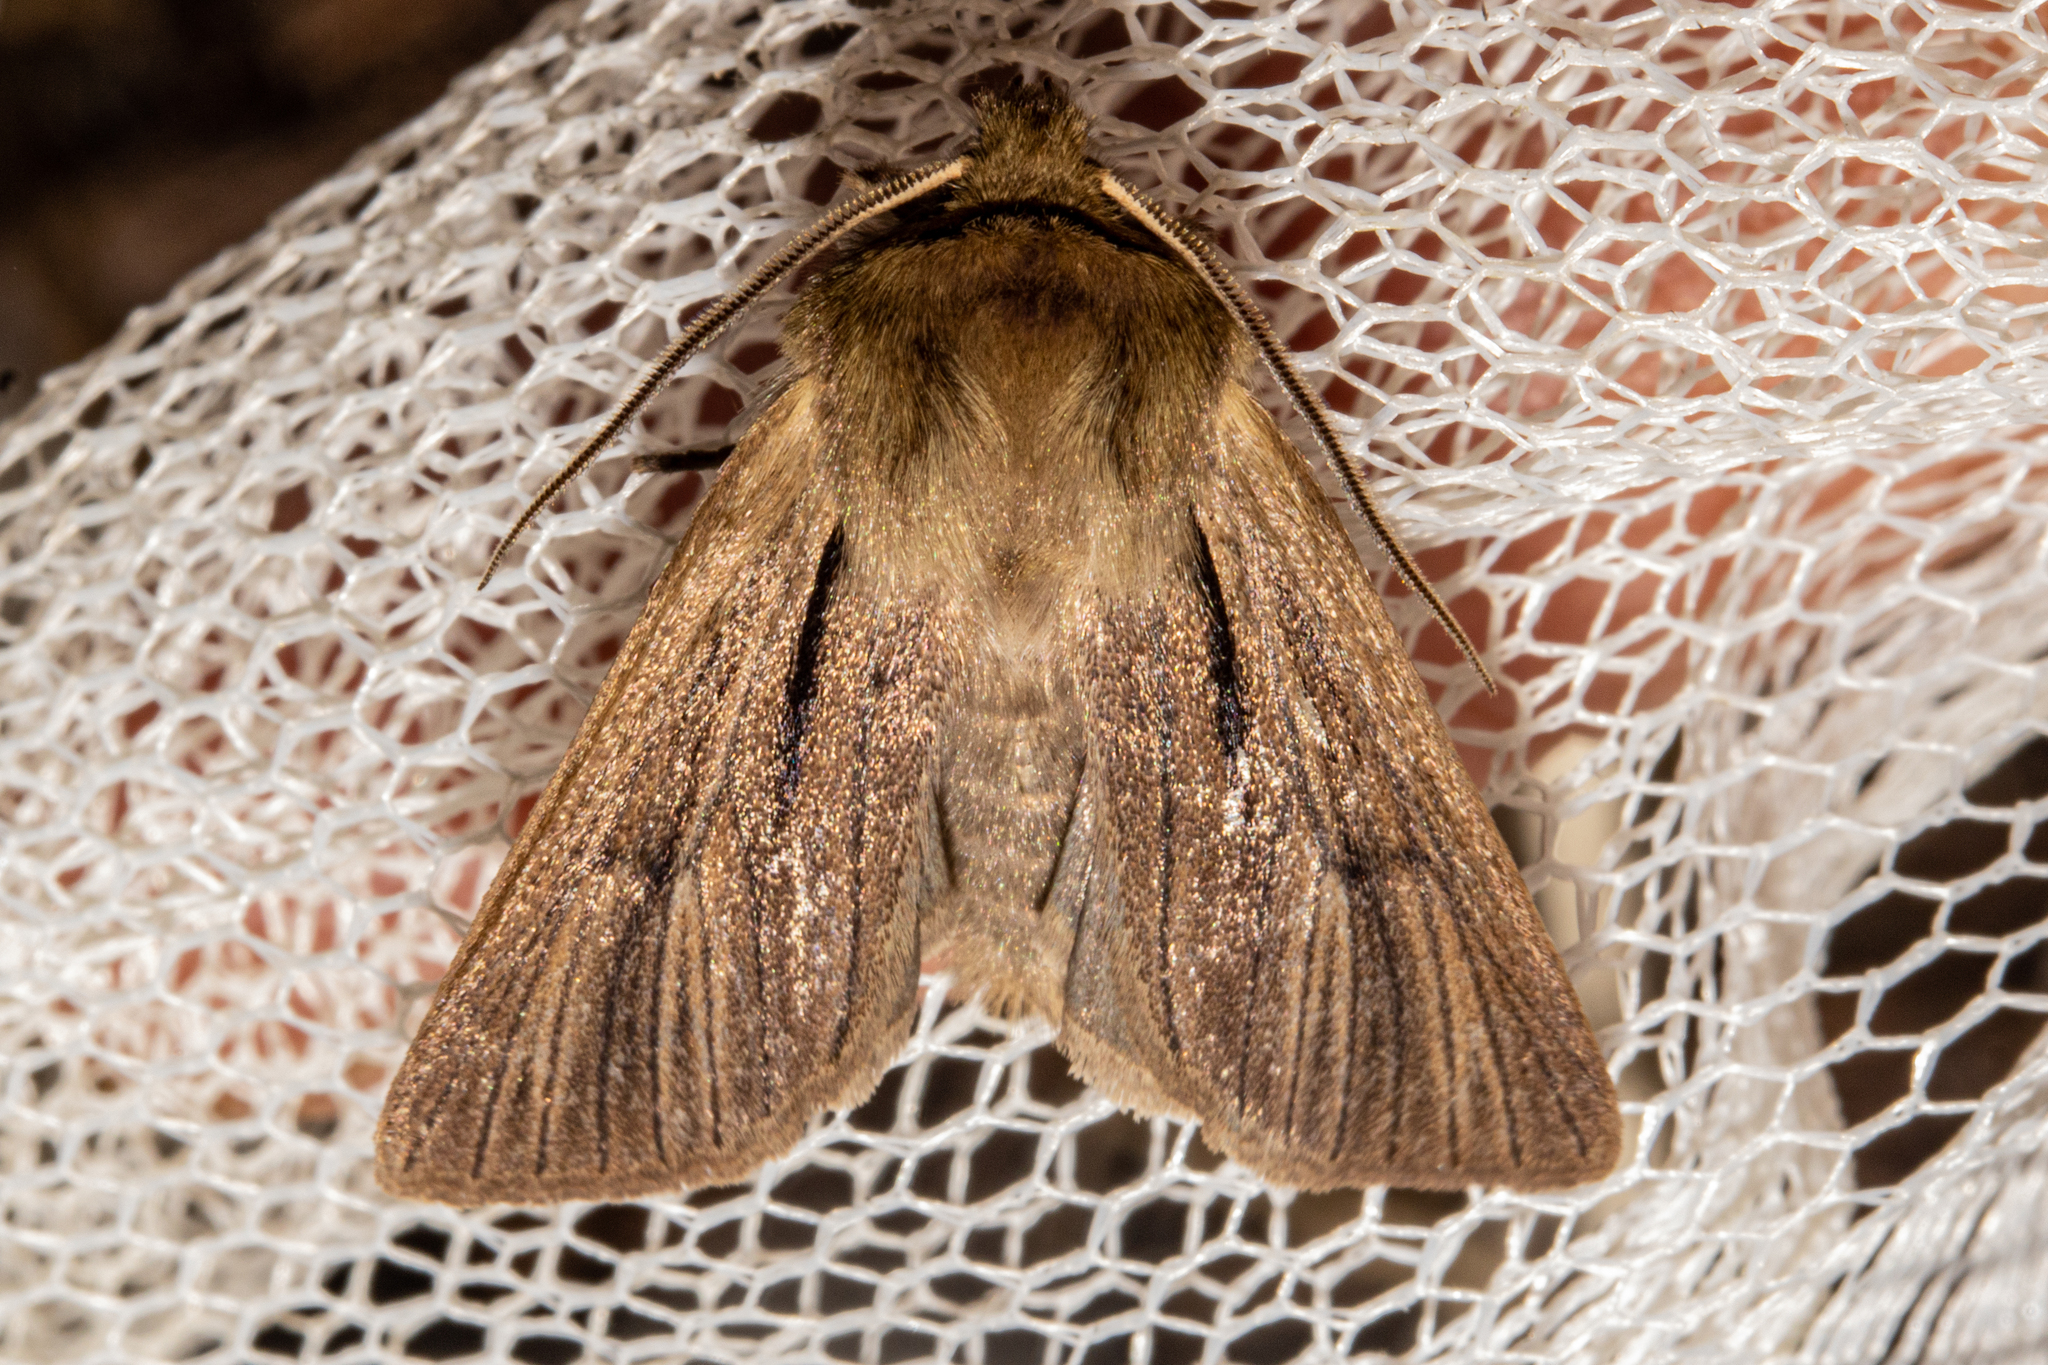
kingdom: Animalia
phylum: Arthropoda
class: Insecta
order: Lepidoptera
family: Noctuidae
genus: Ichneutica
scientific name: Ichneutica
